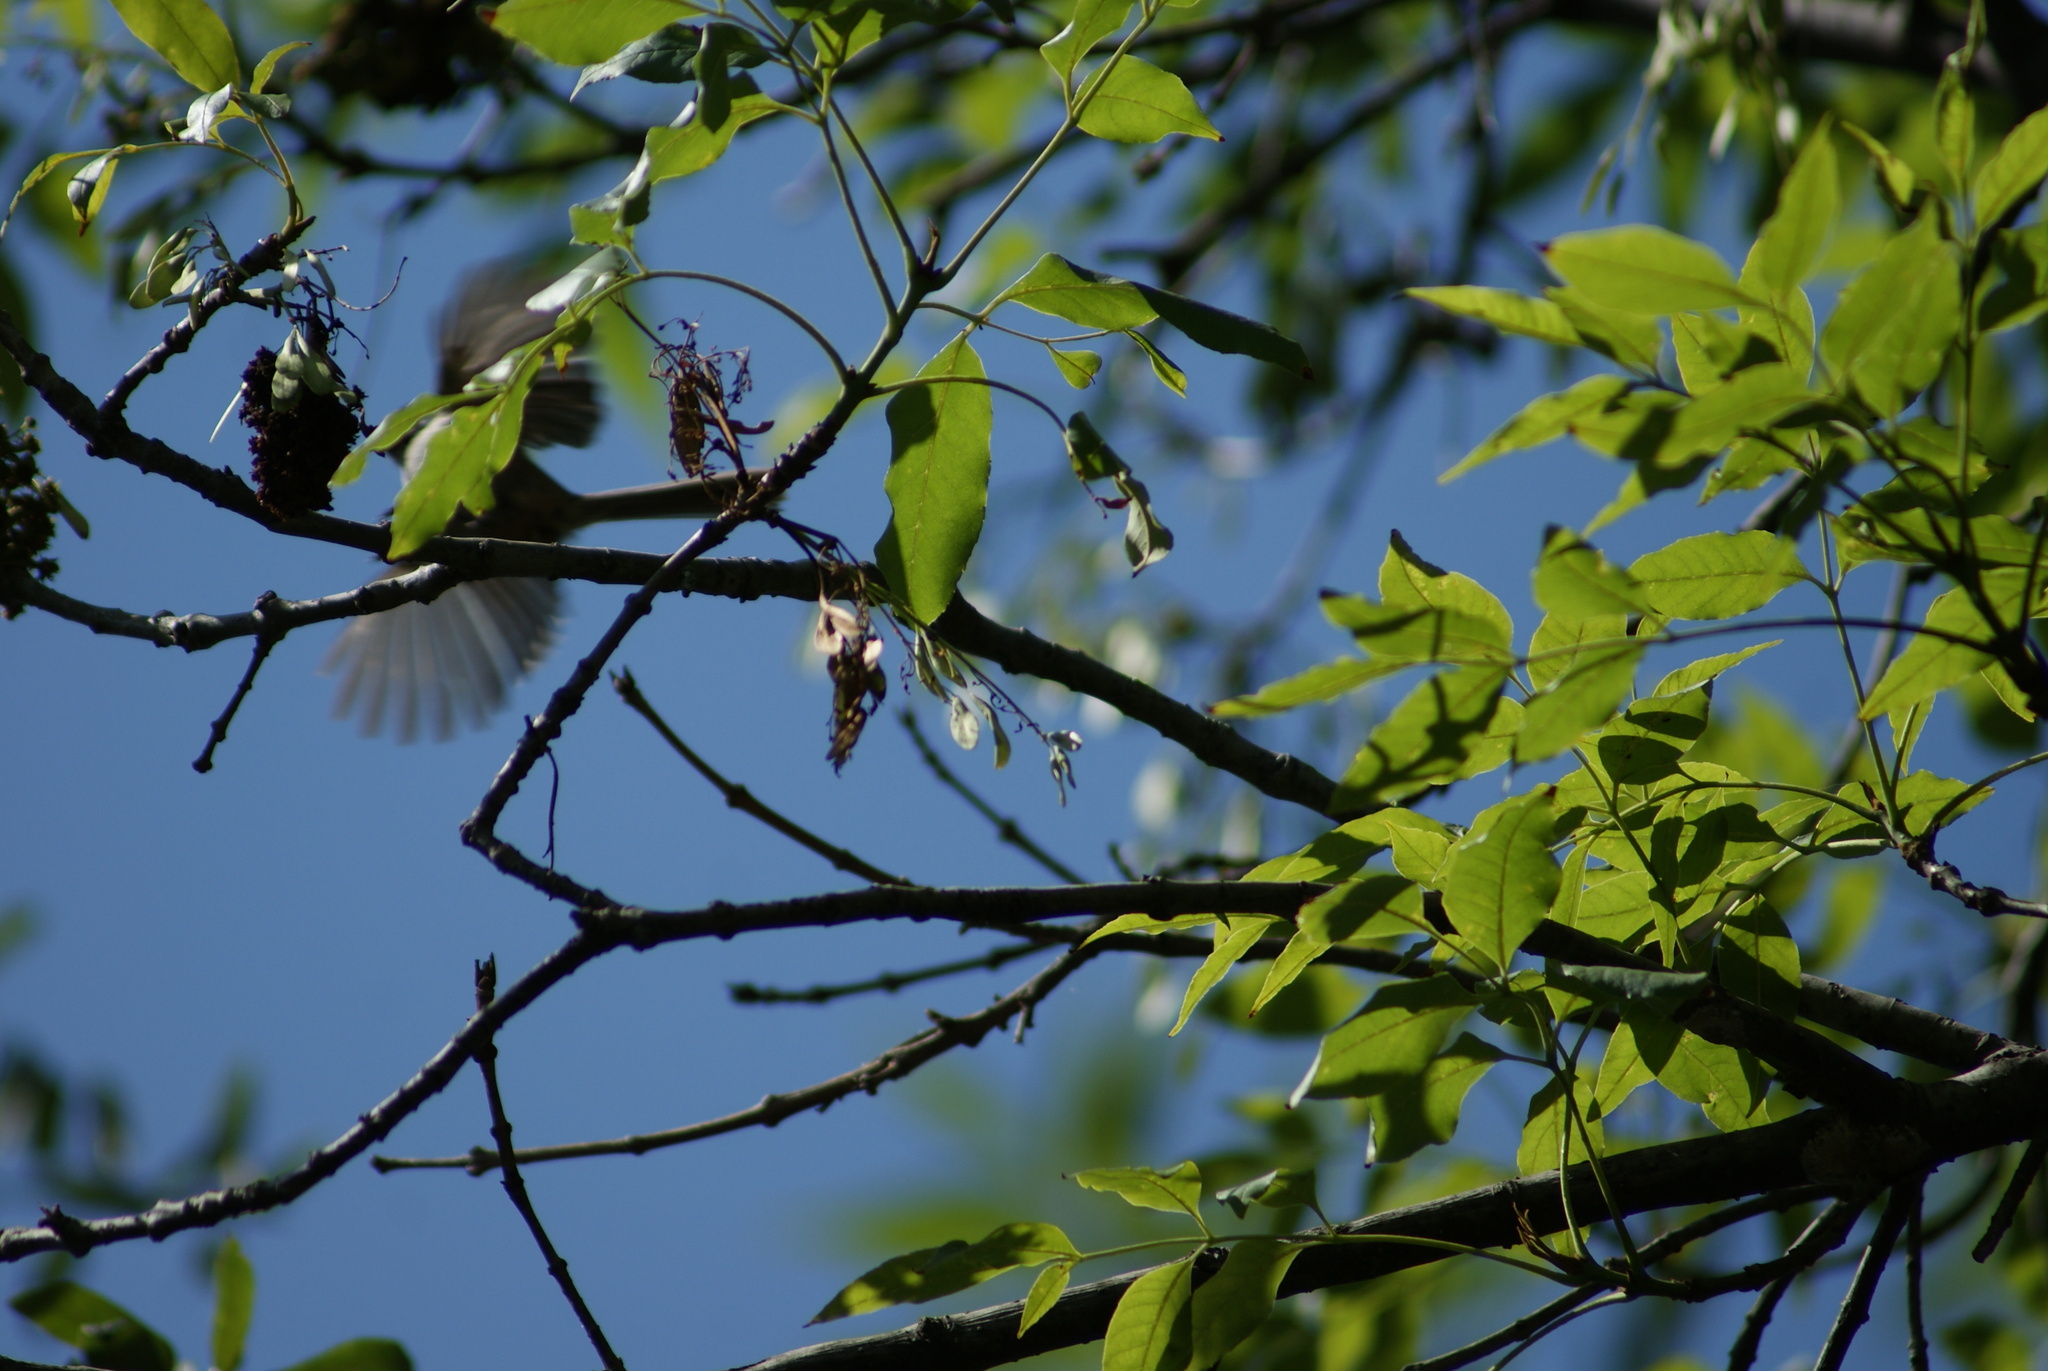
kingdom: Animalia
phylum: Chordata
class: Aves
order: Passeriformes
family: Aegithalidae
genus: Psaltriparus
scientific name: Psaltriparus minimus
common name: American bushtit
